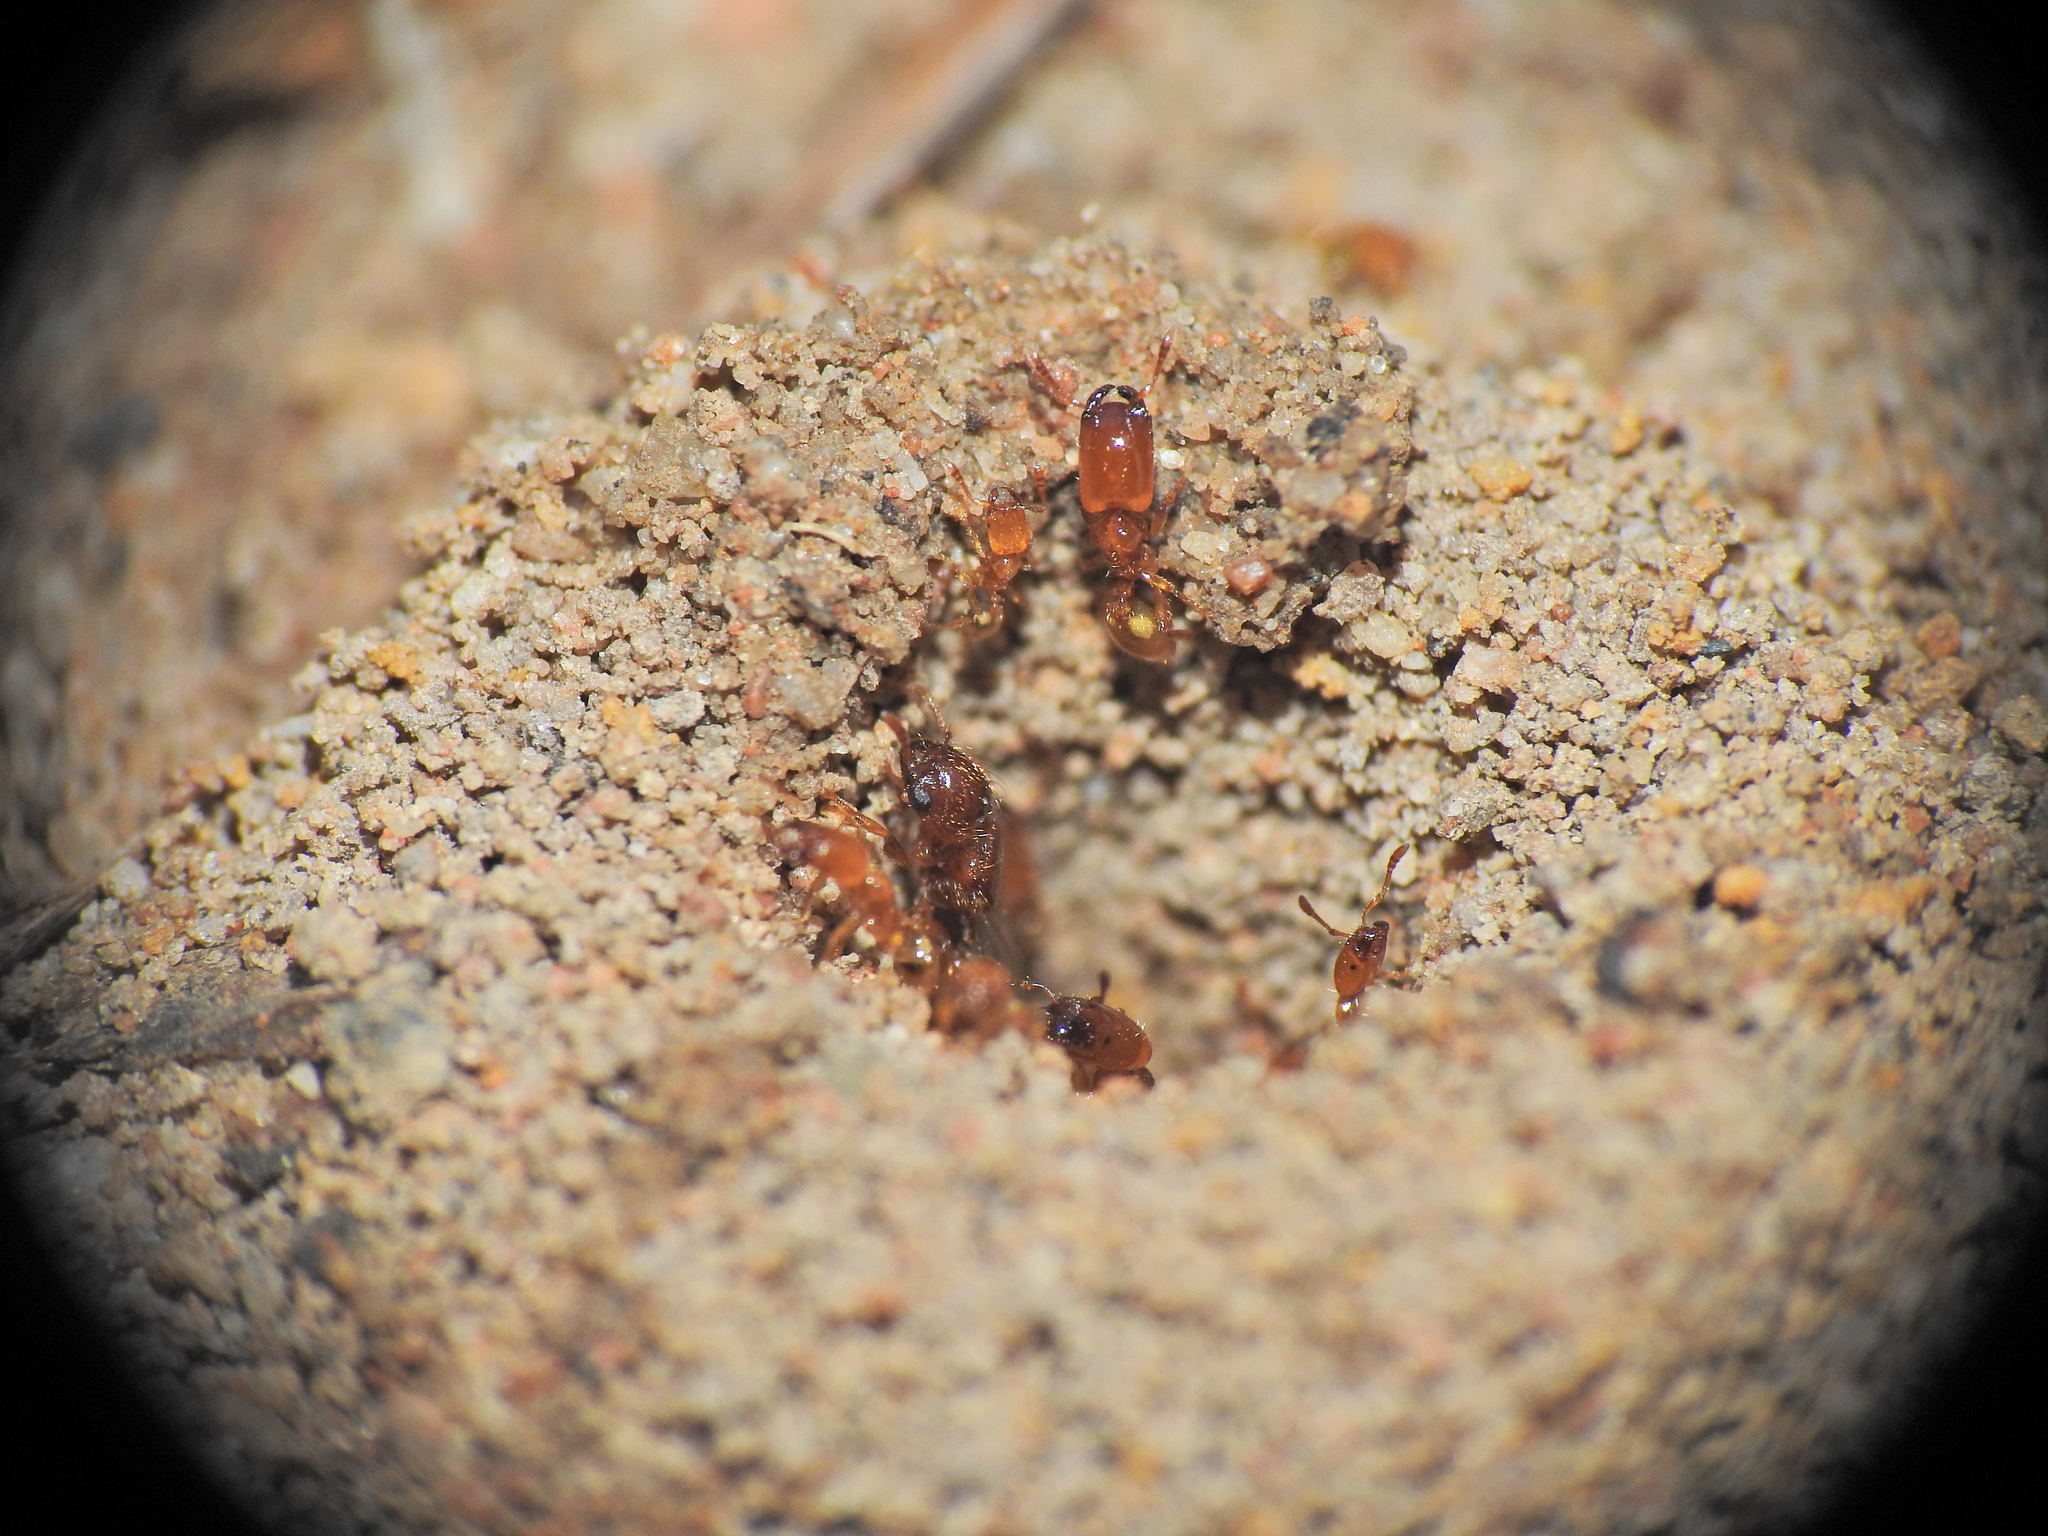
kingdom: Animalia
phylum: Arthropoda
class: Insecta
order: Hymenoptera
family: Formicidae
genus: Pheidole
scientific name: Pheidole
